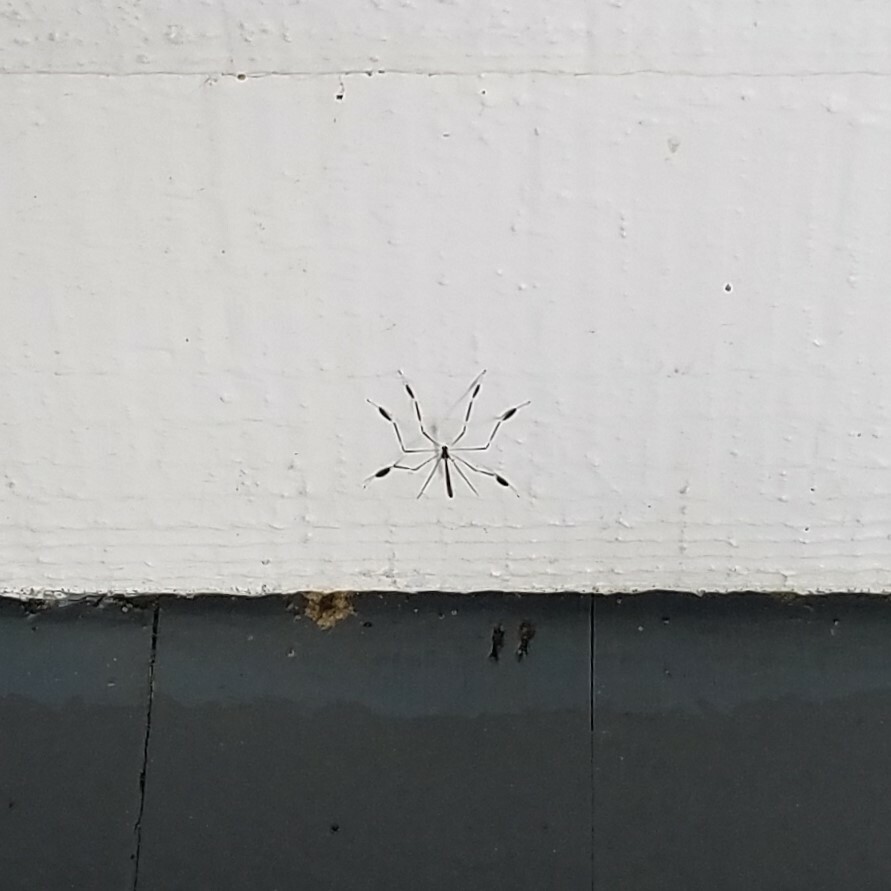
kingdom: Animalia
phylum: Arthropoda
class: Insecta
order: Diptera
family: Ptychopteridae
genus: Bittacomorpha
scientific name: Bittacomorpha clavipes
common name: Eastern phantom crane fly
